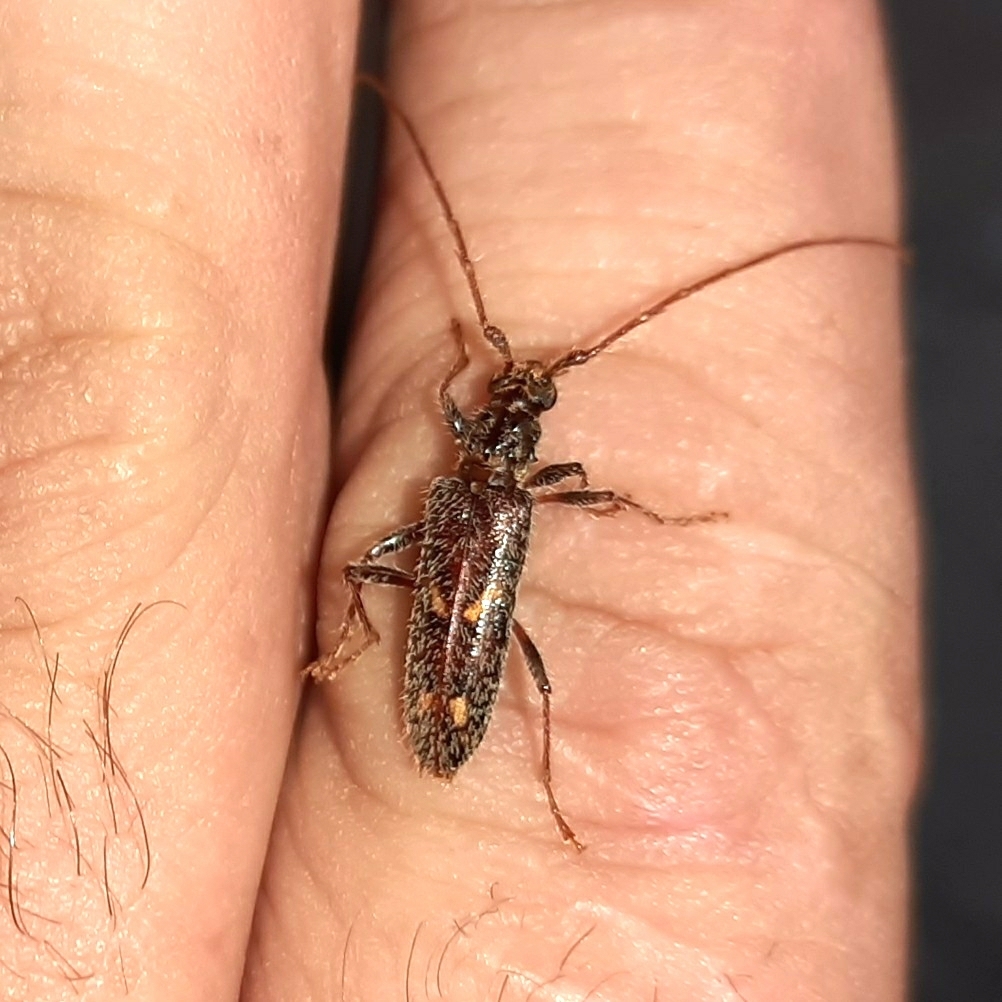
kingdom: Animalia
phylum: Arthropoda
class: Insecta
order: Coleoptera
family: Cerambycidae
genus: Eurysthea
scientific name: Eurysthea cribripennis
